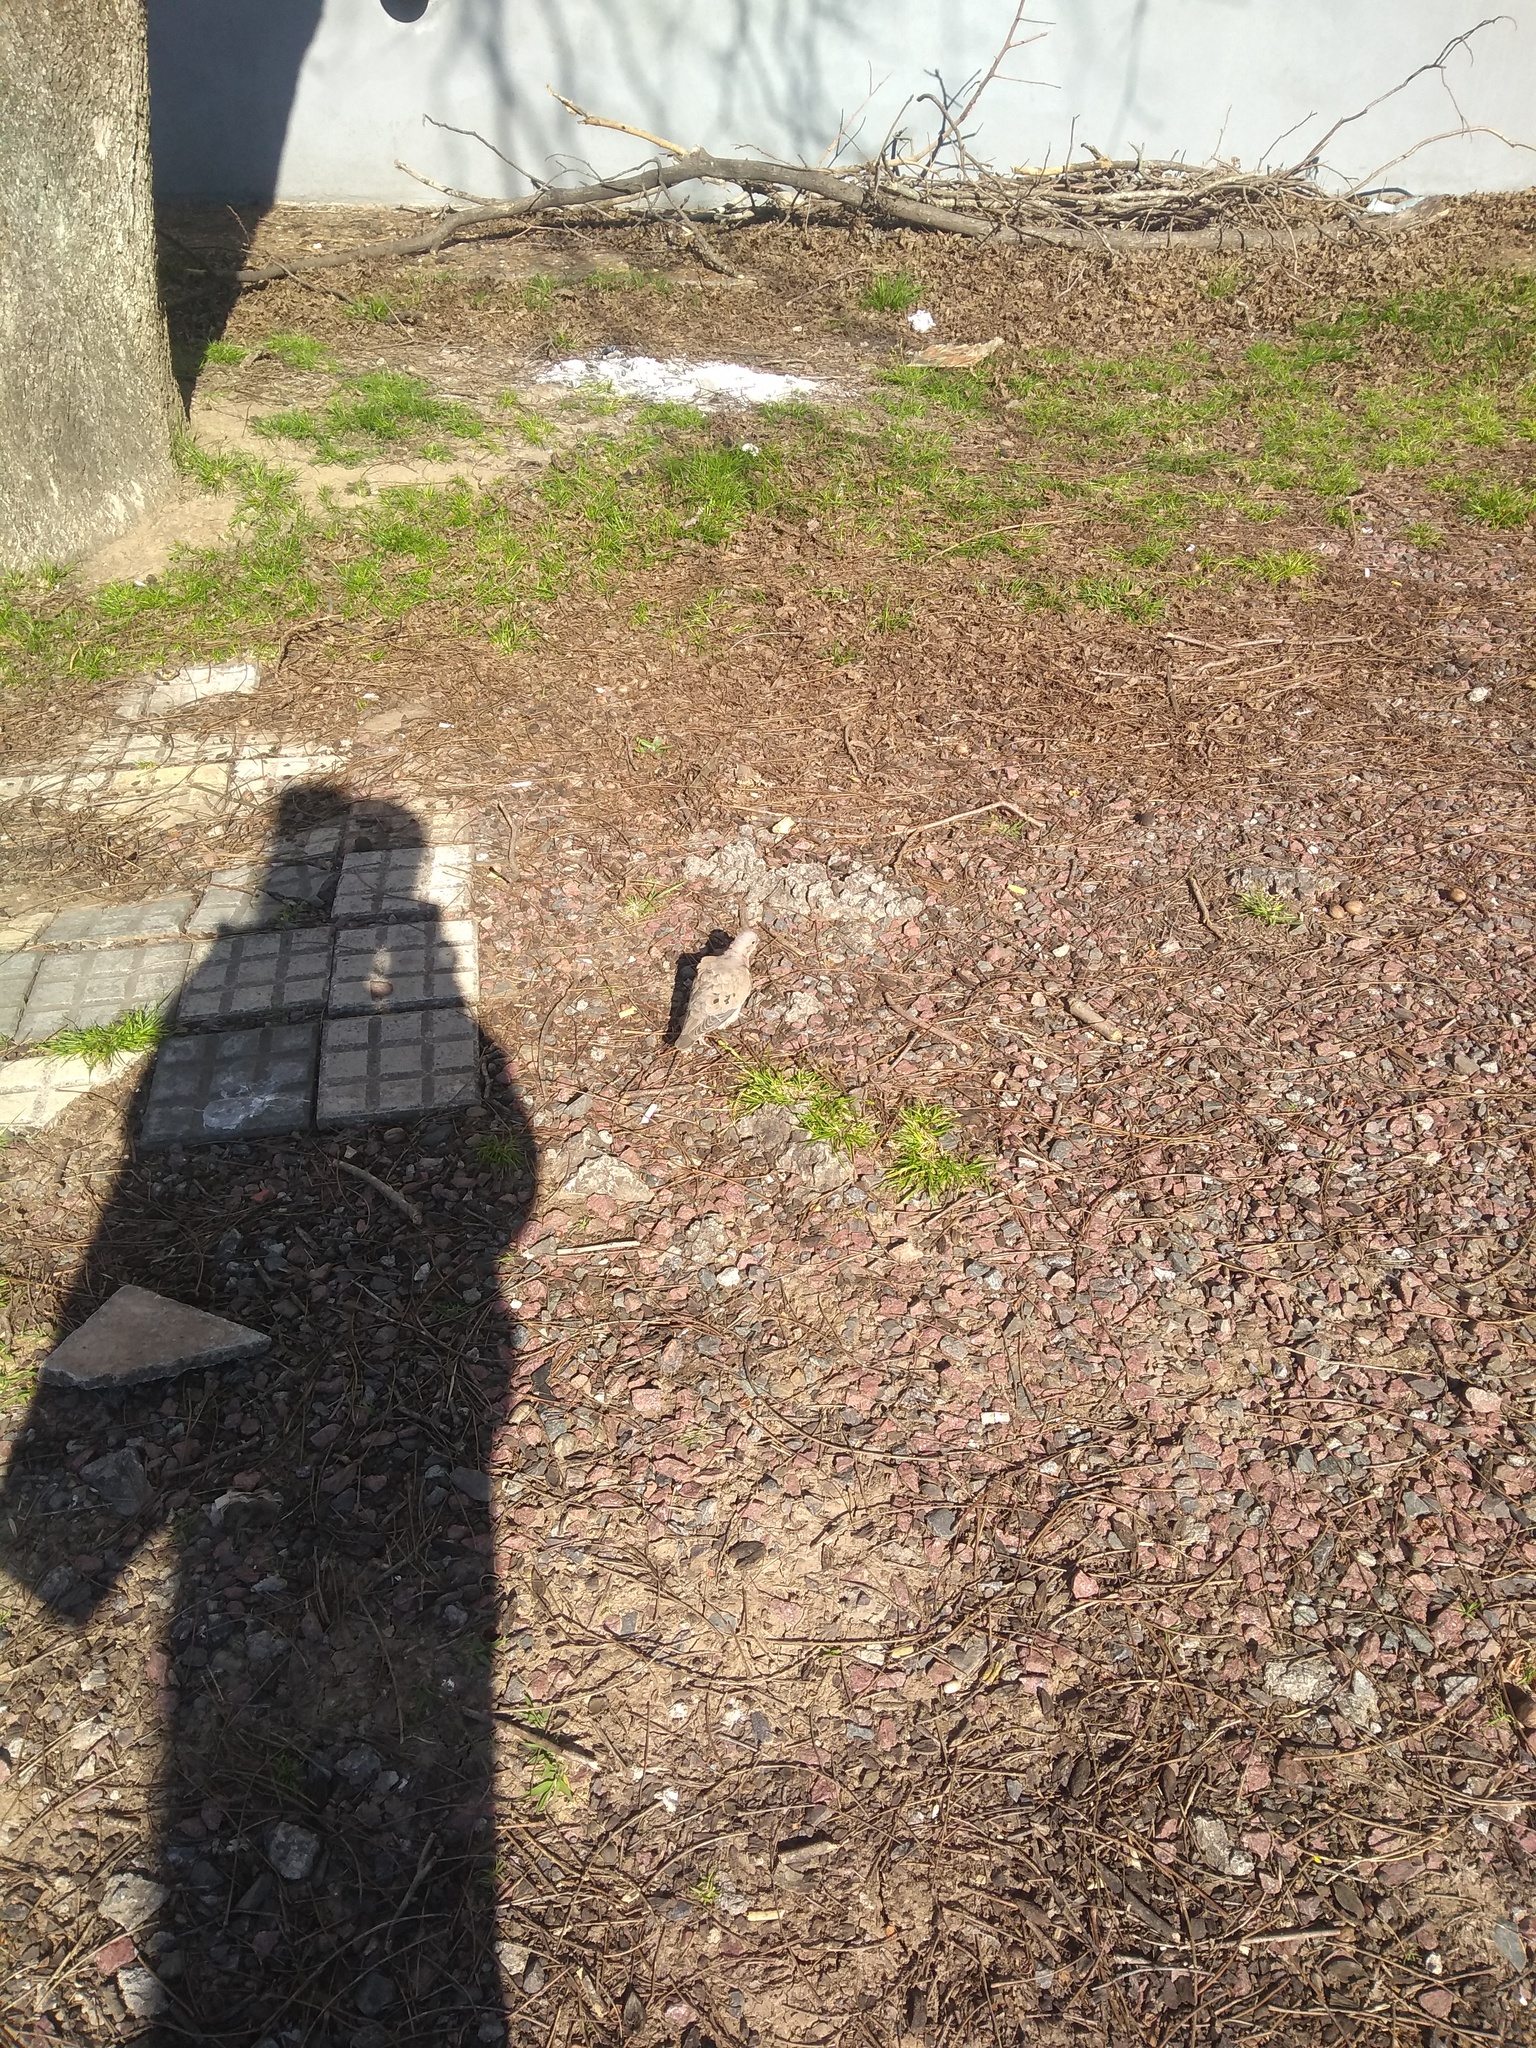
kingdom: Animalia
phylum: Chordata
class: Aves
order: Columbiformes
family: Columbidae
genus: Zenaida
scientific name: Zenaida auriculata
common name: Eared dove
